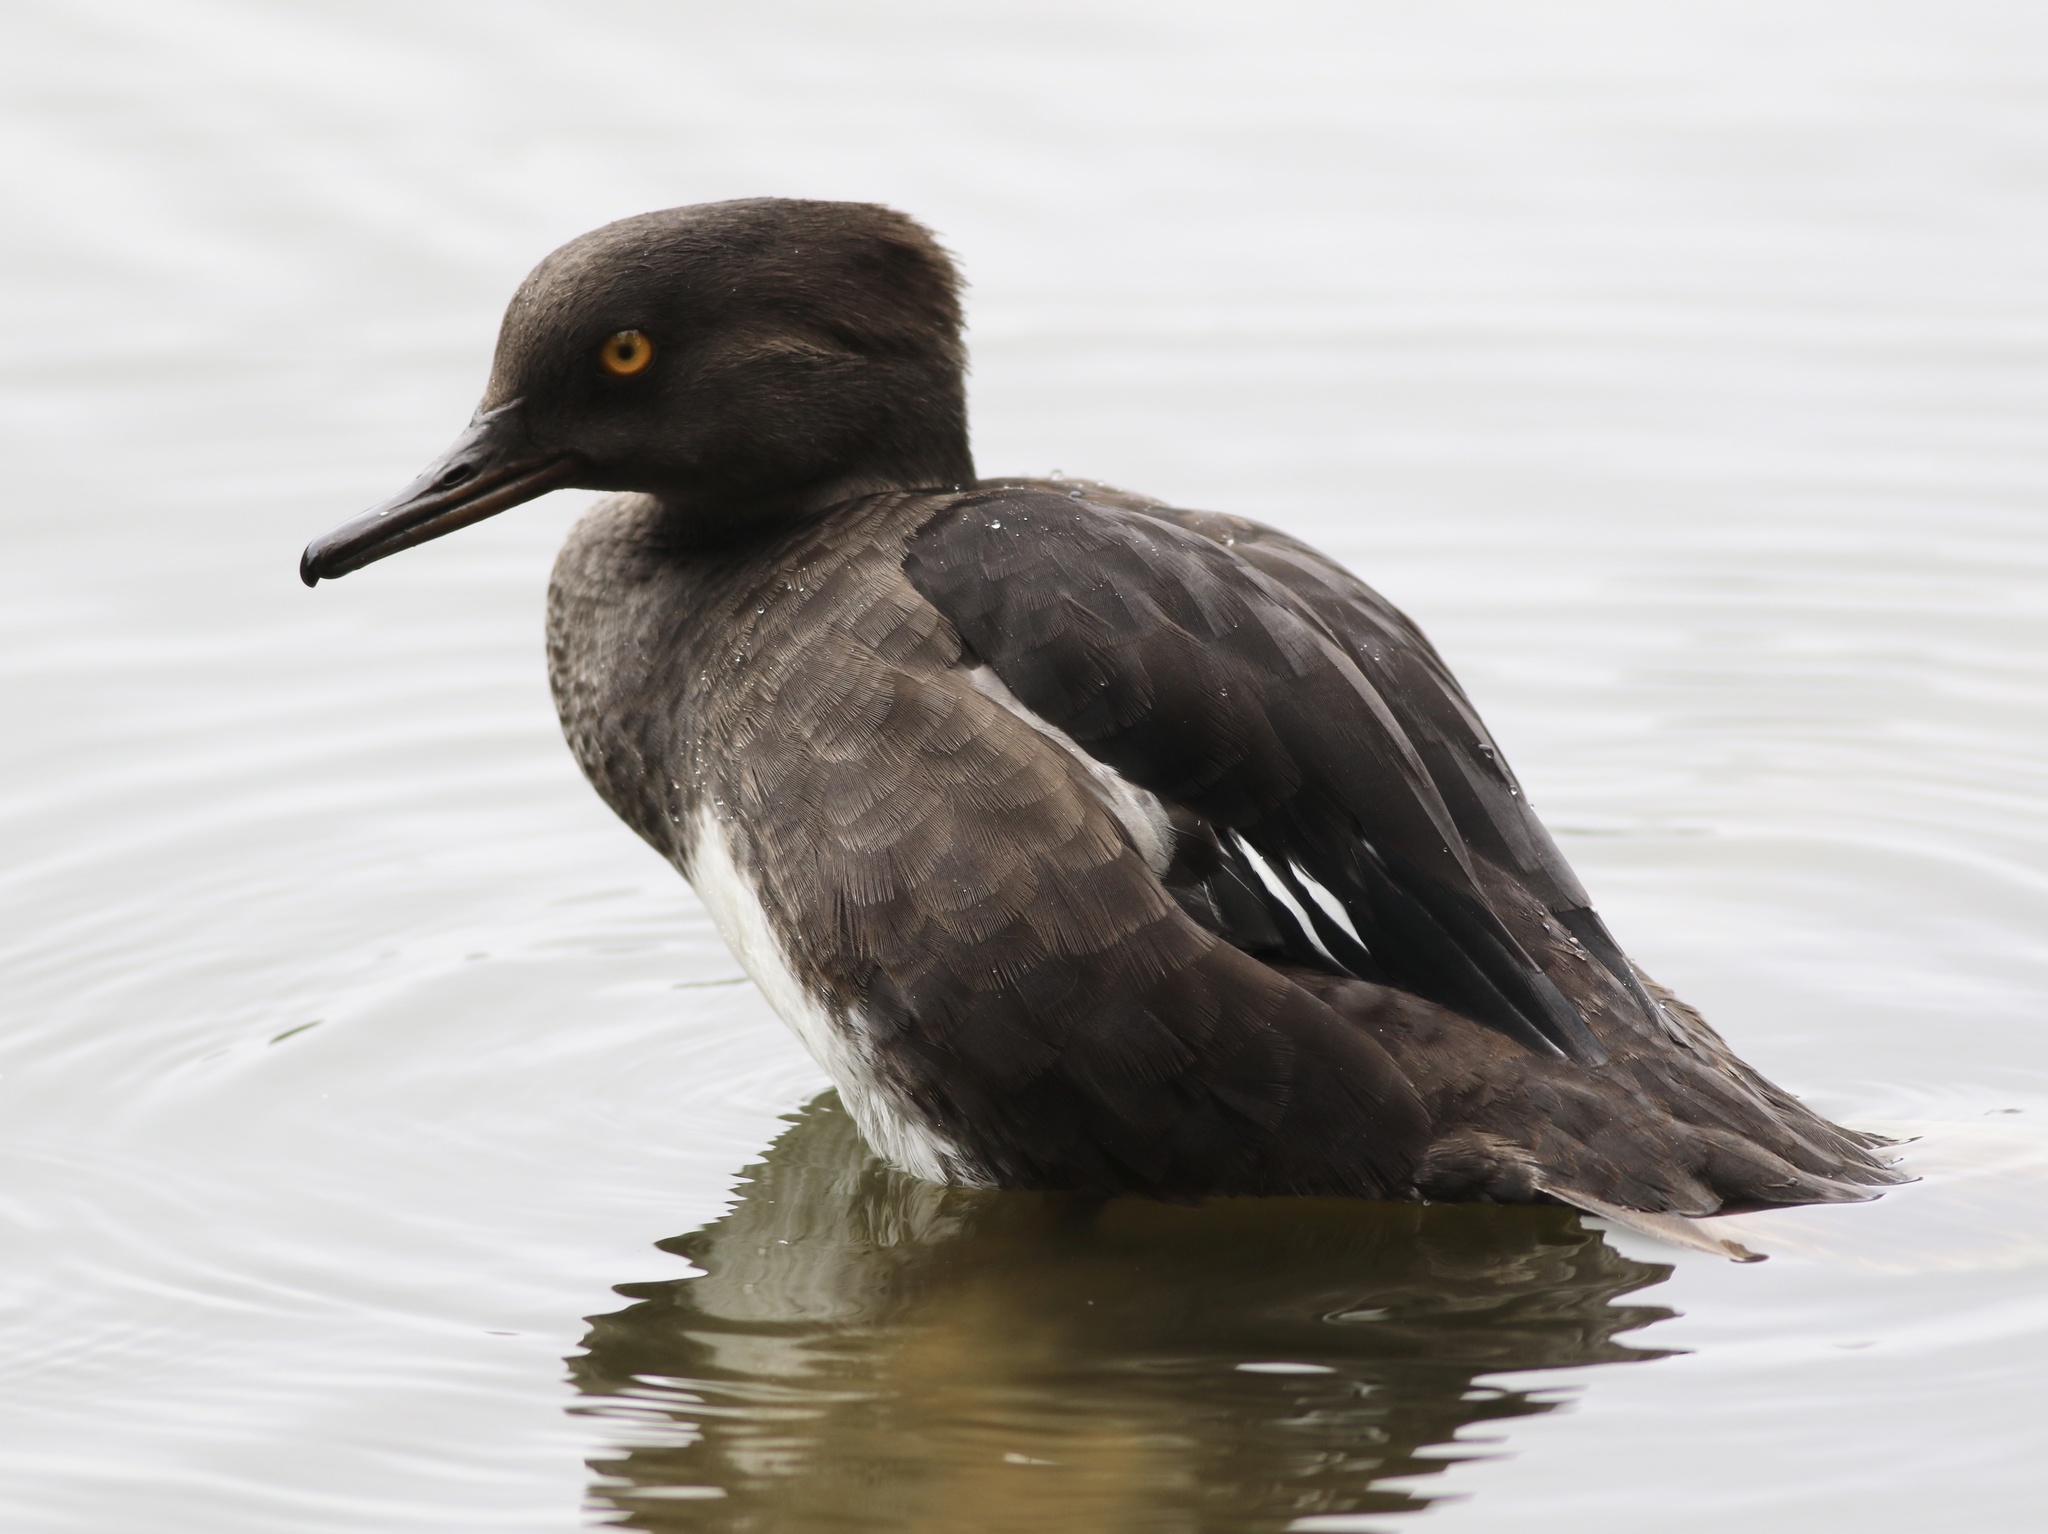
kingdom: Animalia
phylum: Chordata
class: Aves
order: Anseriformes
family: Anatidae
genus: Lophodytes
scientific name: Lophodytes cucullatus
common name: Hooded merganser
